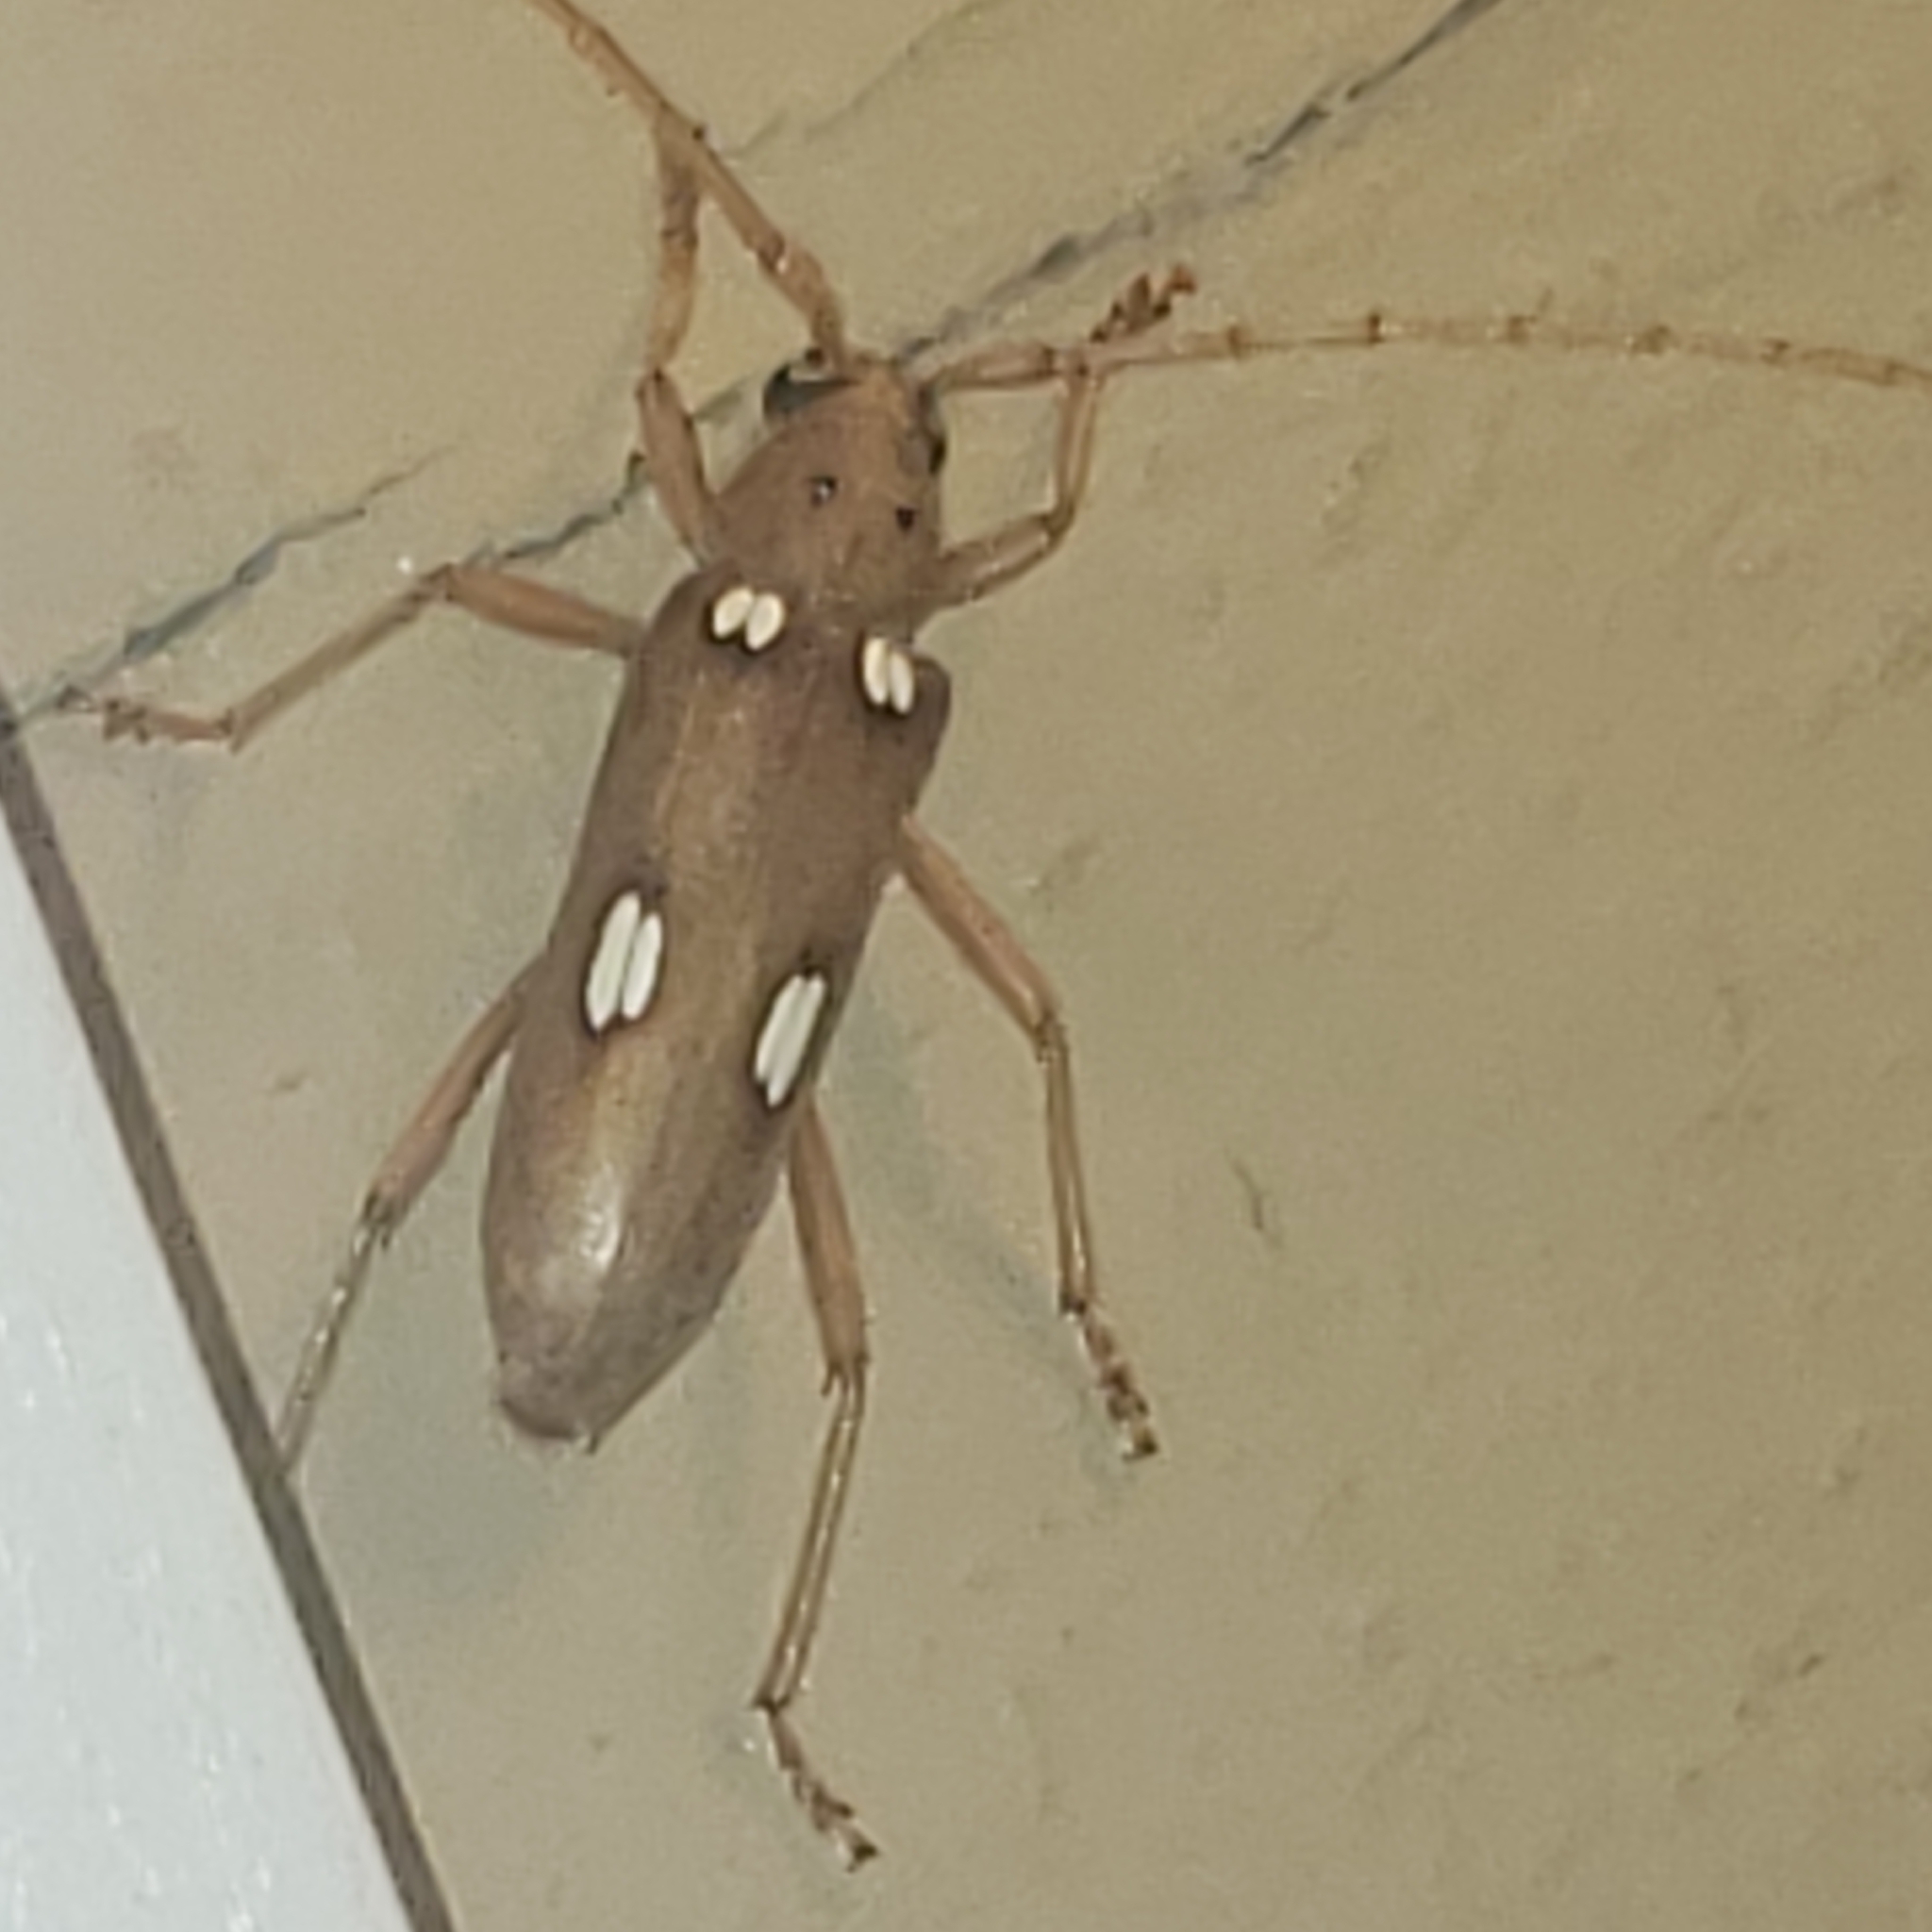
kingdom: Animalia
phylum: Arthropoda
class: Insecta
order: Coleoptera
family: Cerambycidae
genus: Eburia
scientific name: Eburia quadrigeminata
